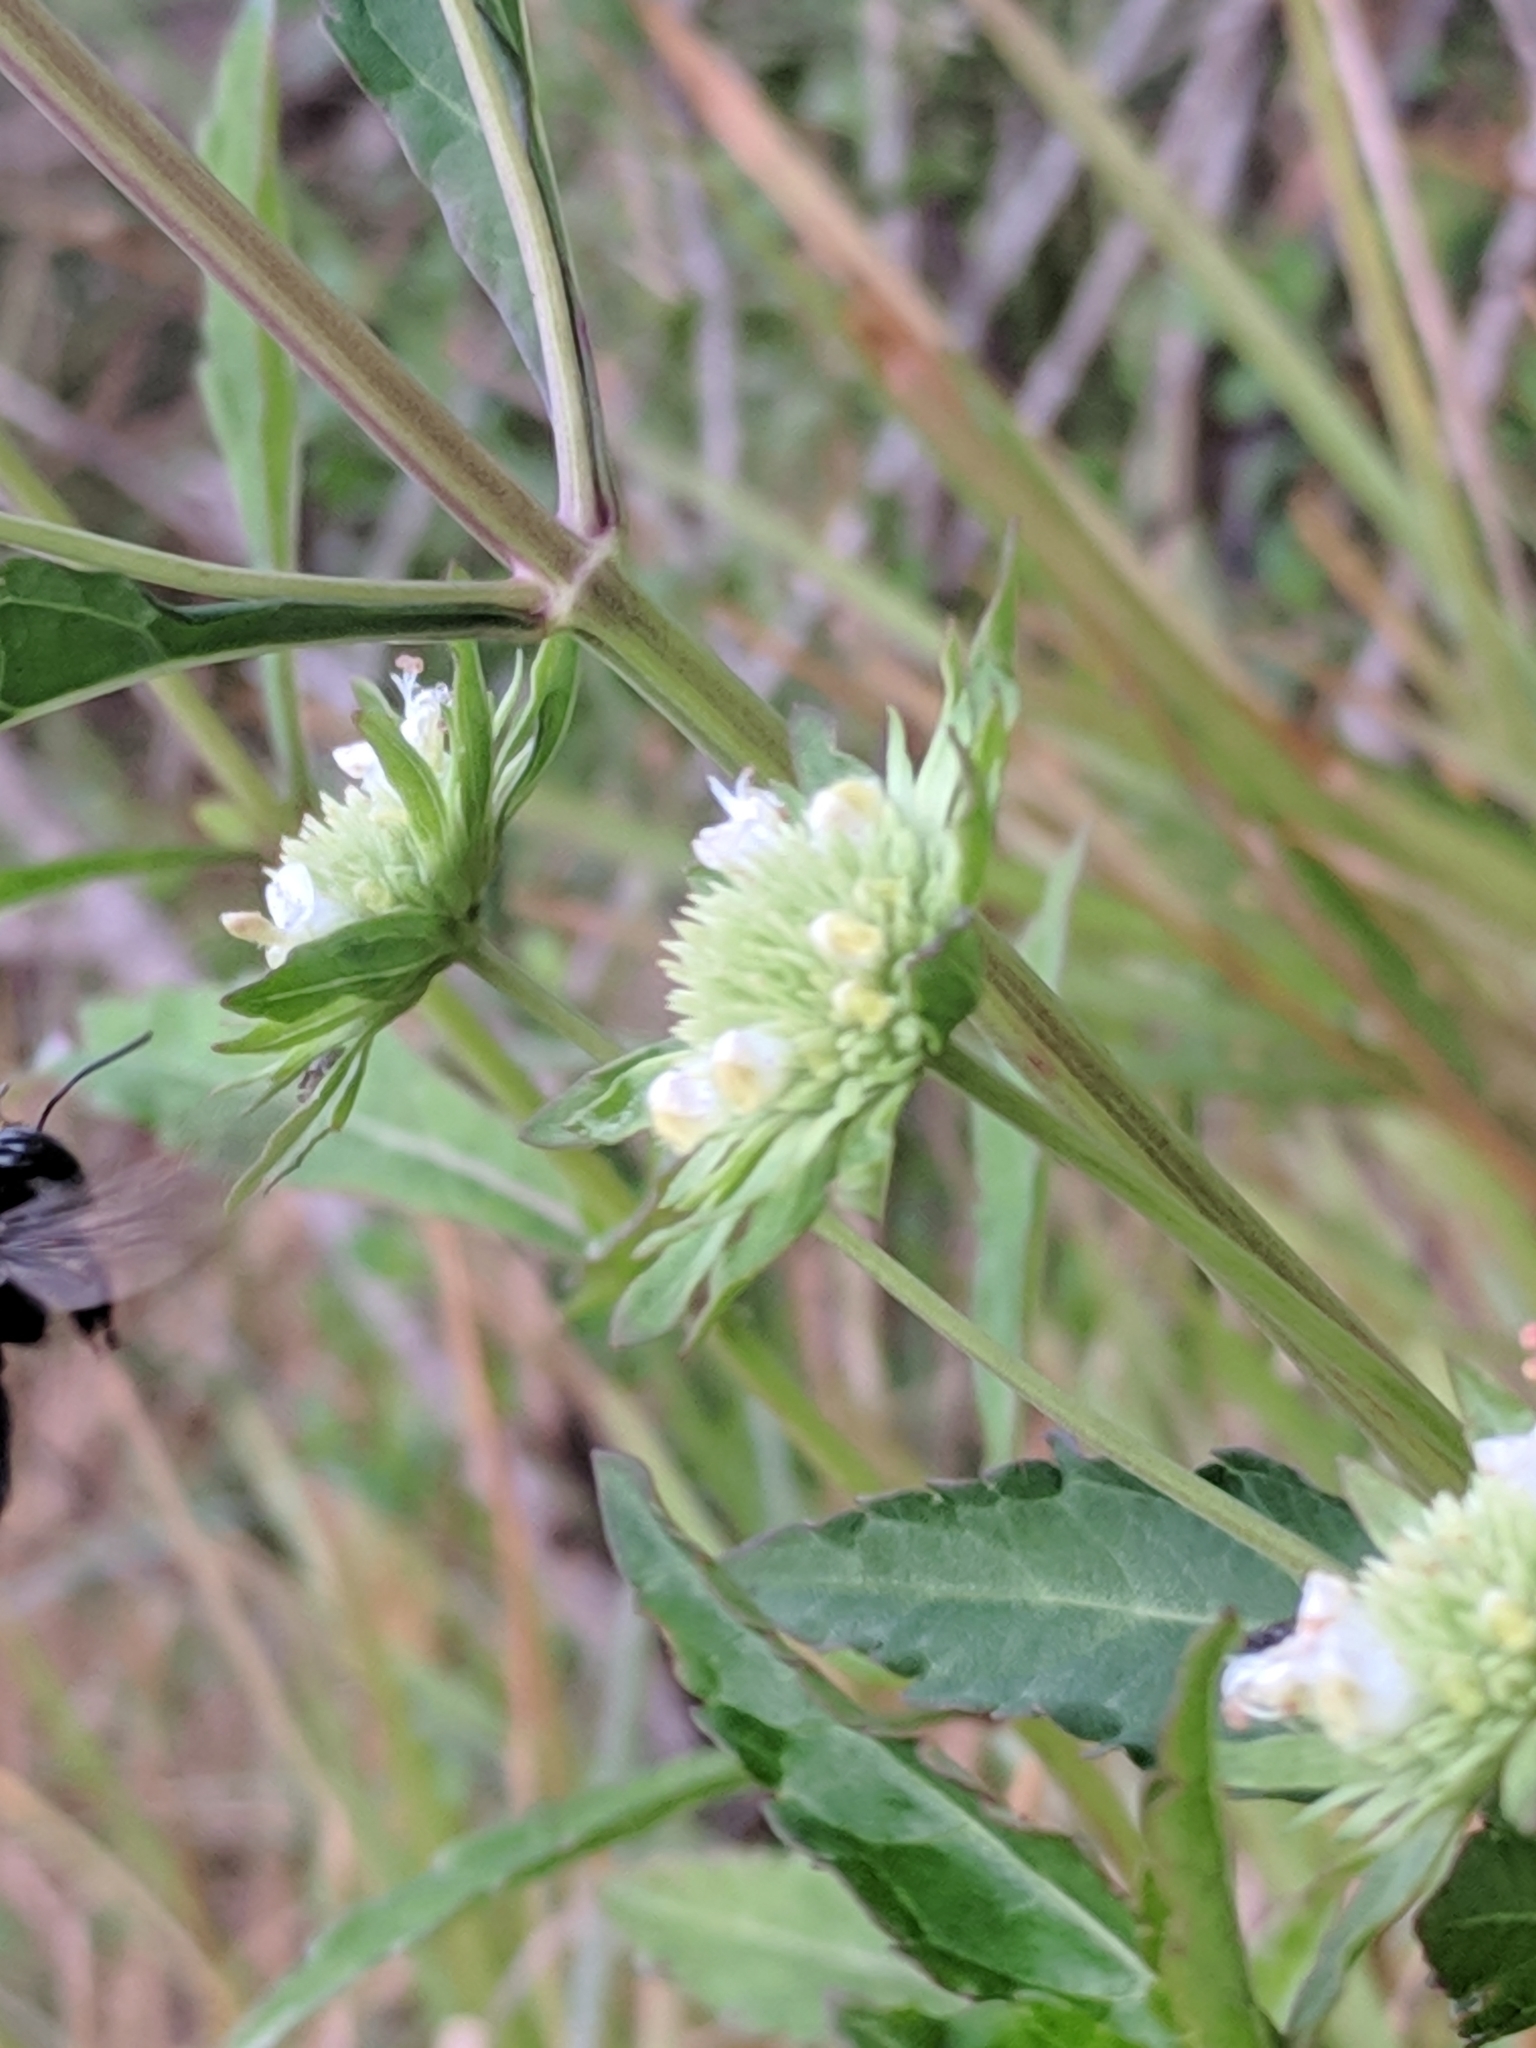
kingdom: Plantae
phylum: Tracheophyta
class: Magnoliopsida
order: Lamiales
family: Lamiaceae
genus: Hyptis
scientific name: Hyptis alata
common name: Cluster bush-mint
